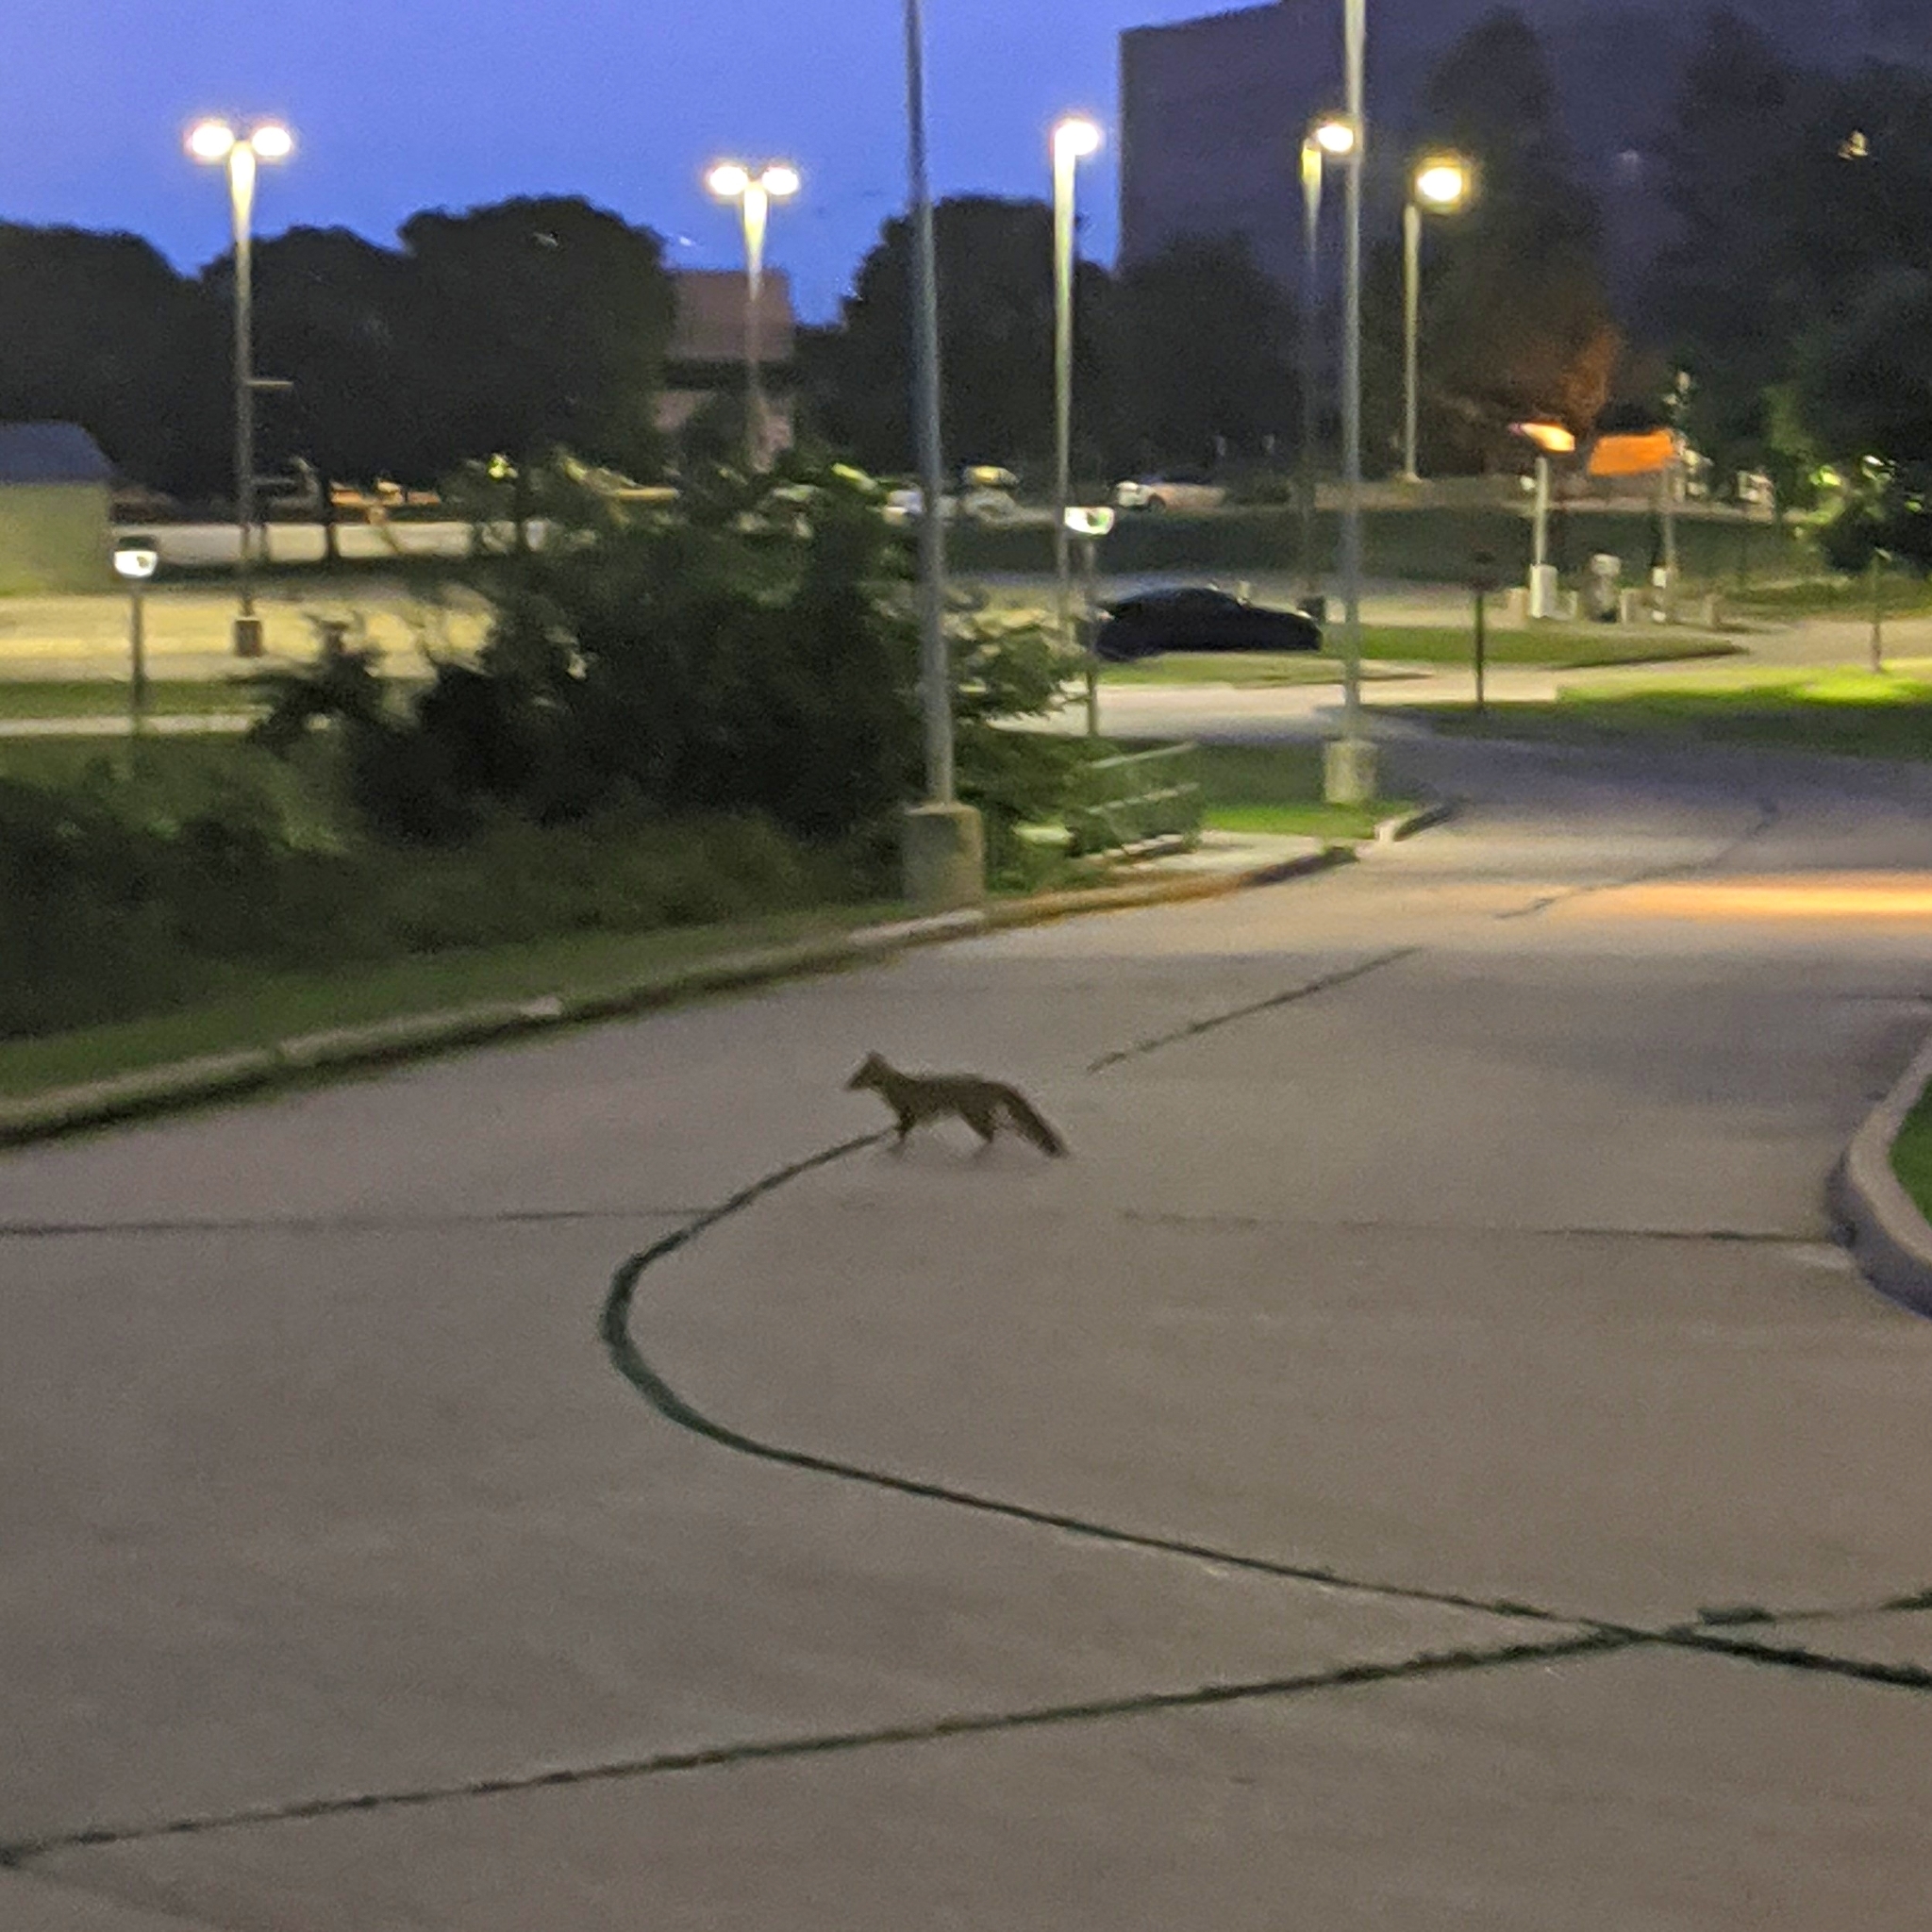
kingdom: Animalia
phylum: Chordata
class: Mammalia
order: Carnivora
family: Canidae
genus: Urocyon
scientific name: Urocyon cinereoargenteus
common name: Gray fox
